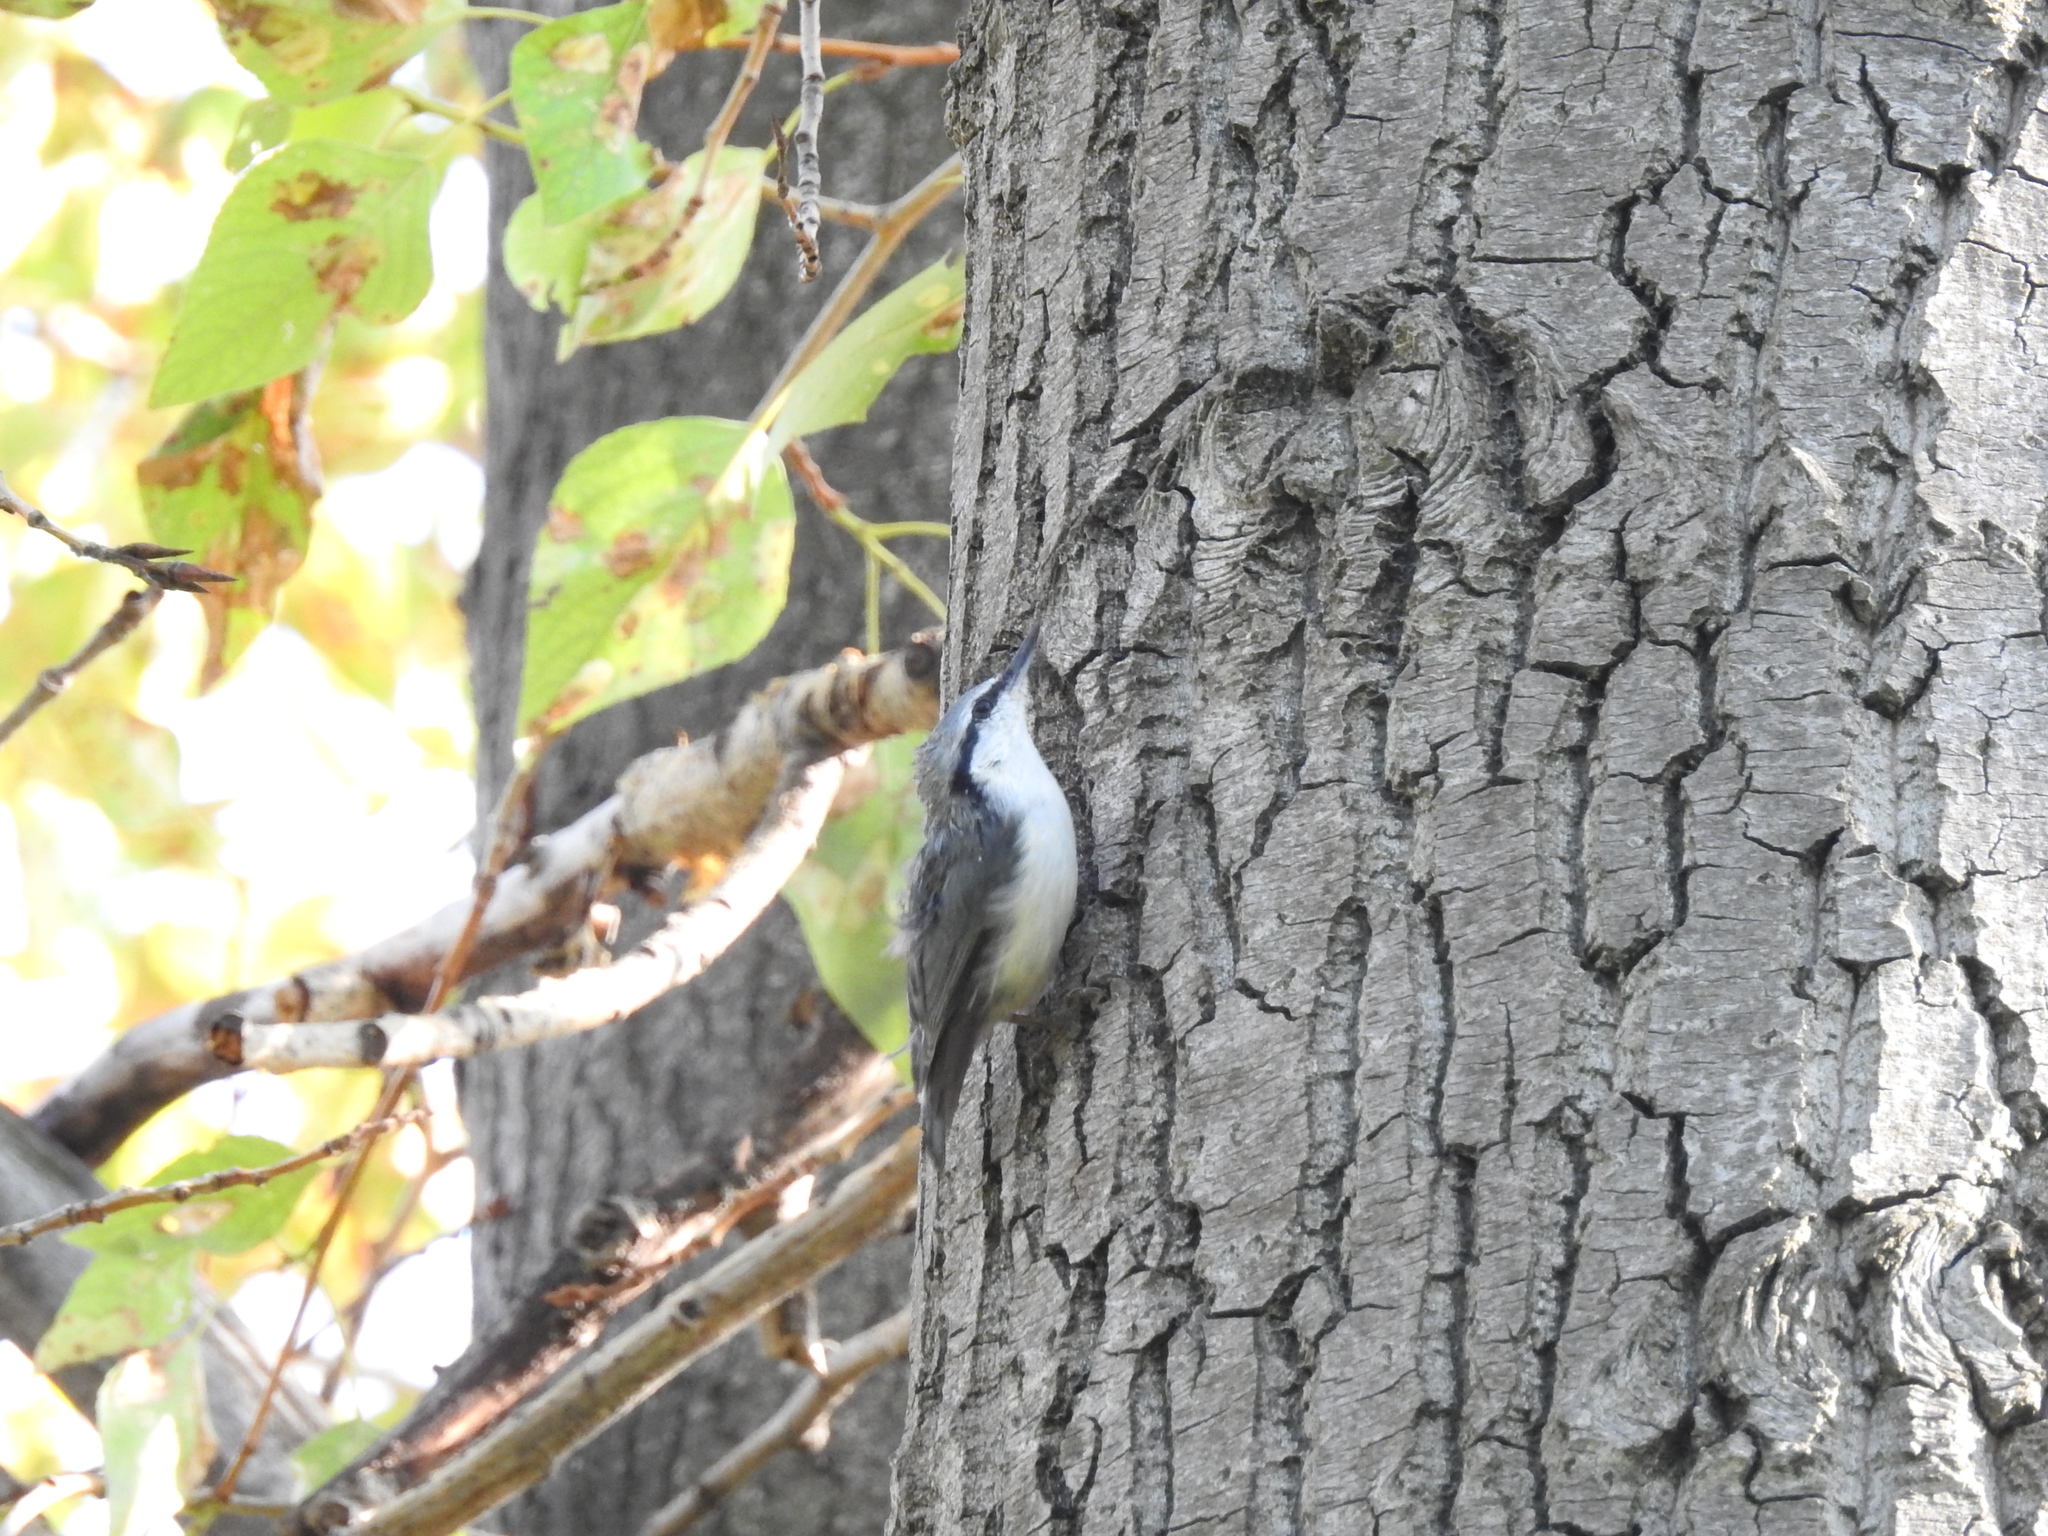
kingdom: Animalia
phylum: Chordata
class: Aves
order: Passeriformes
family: Sittidae
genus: Sitta
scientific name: Sitta europaea
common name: Eurasian nuthatch
